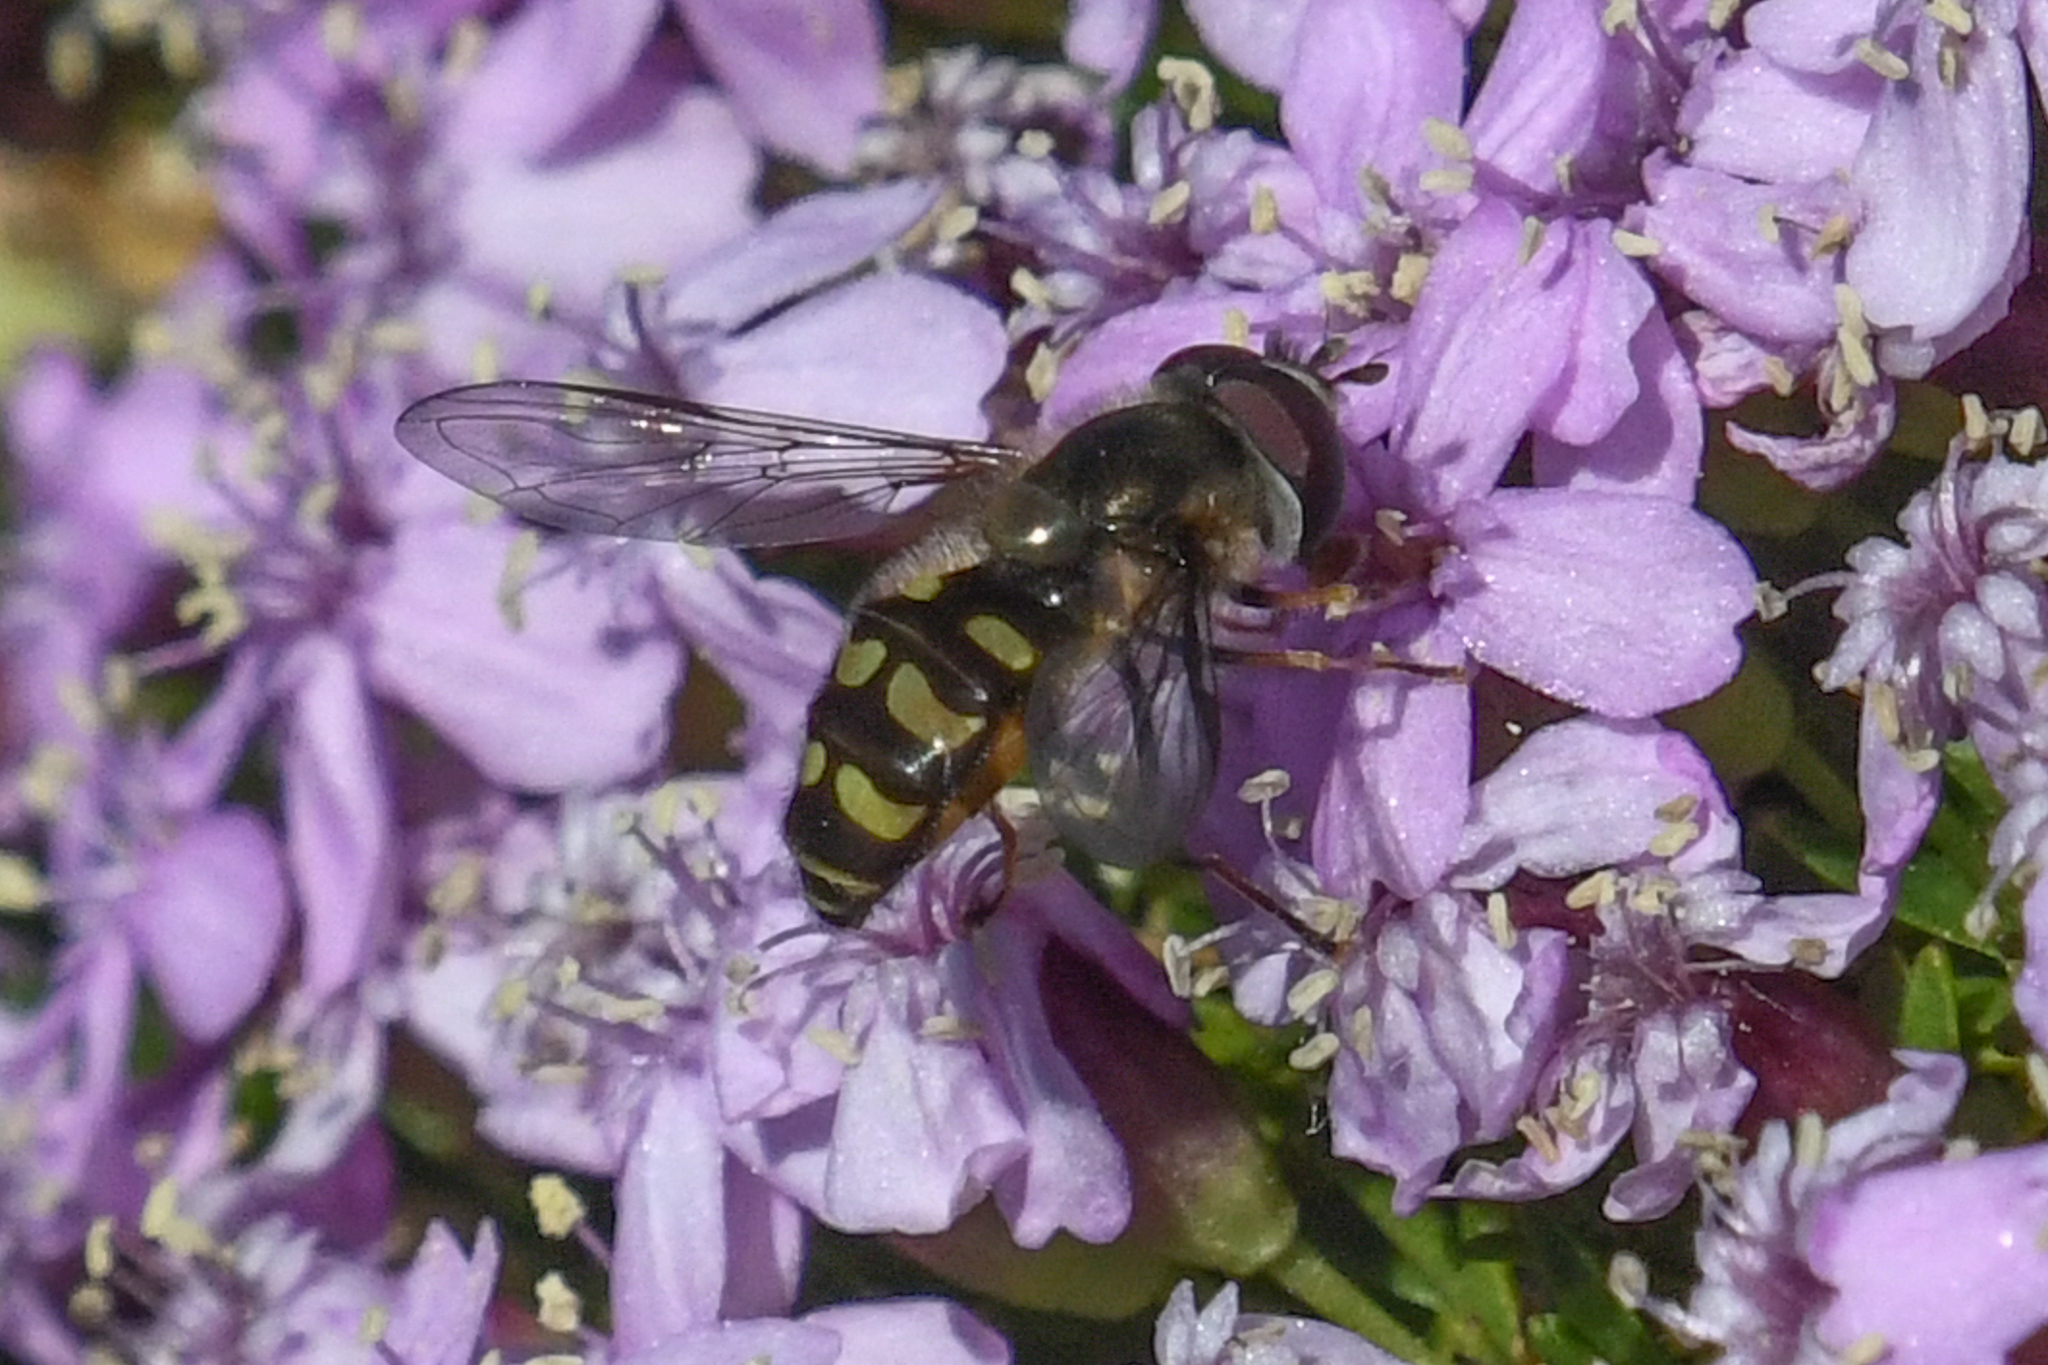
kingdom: Animalia
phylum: Arthropoda
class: Insecta
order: Diptera
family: Syrphidae
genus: Lapposyrphus
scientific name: Lapposyrphus lapponicus
